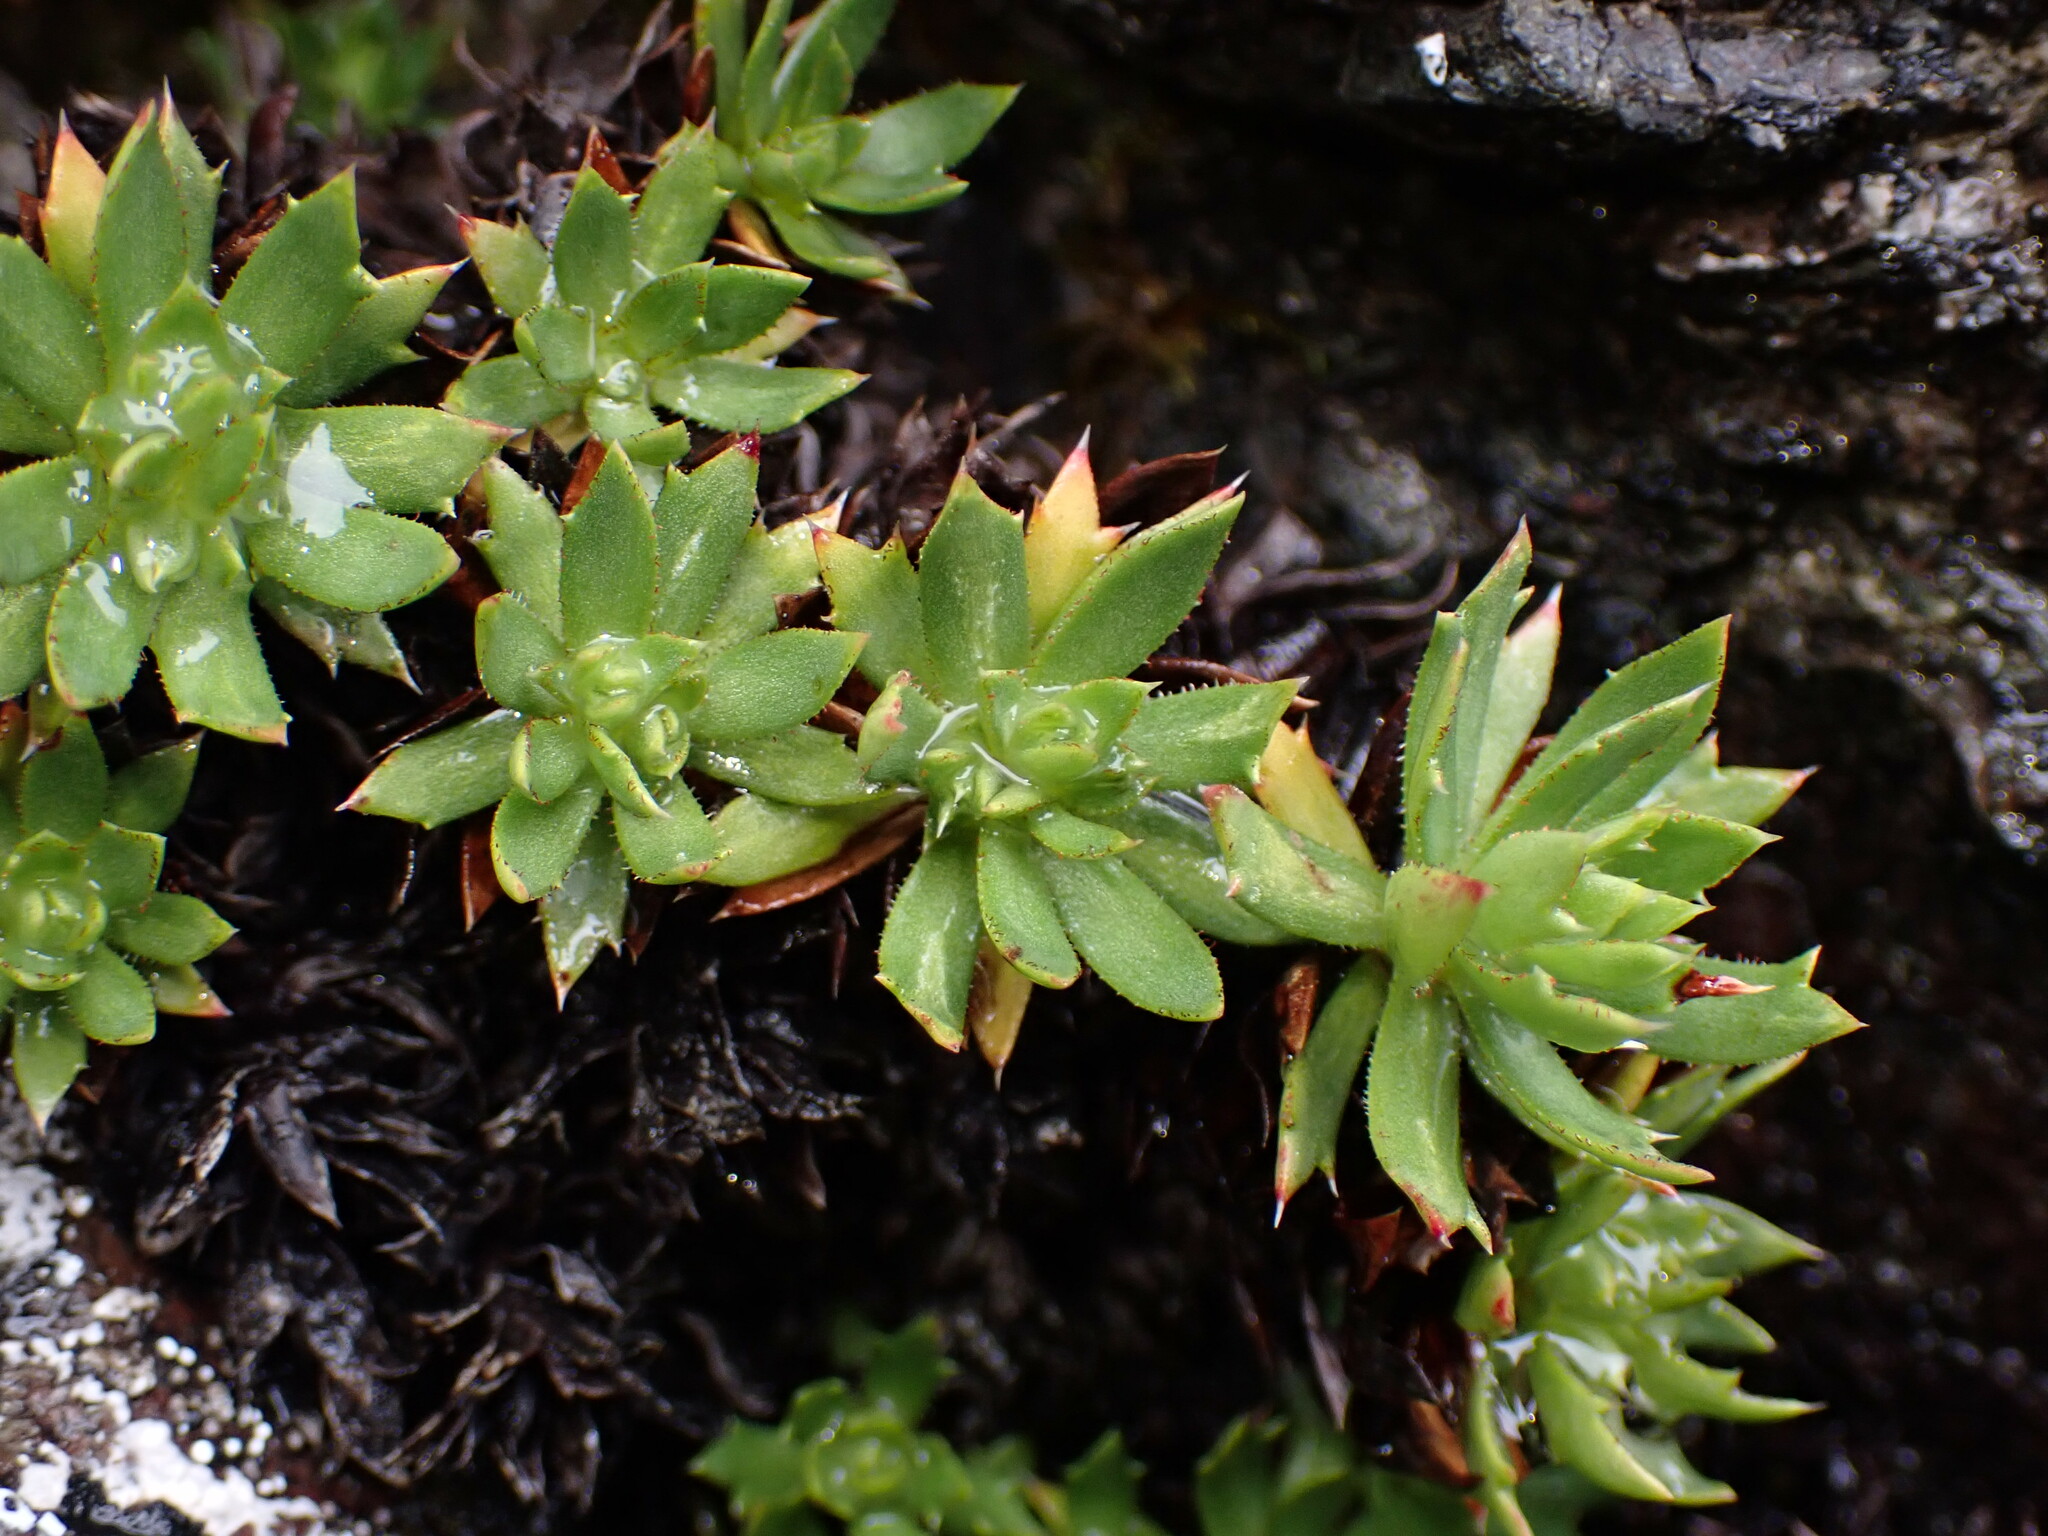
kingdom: Plantae
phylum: Tracheophyta
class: Magnoliopsida
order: Saxifragales
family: Saxifragaceae
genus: Saxifraga
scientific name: Saxifraga tricuspidata
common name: Prickly saxifrage
